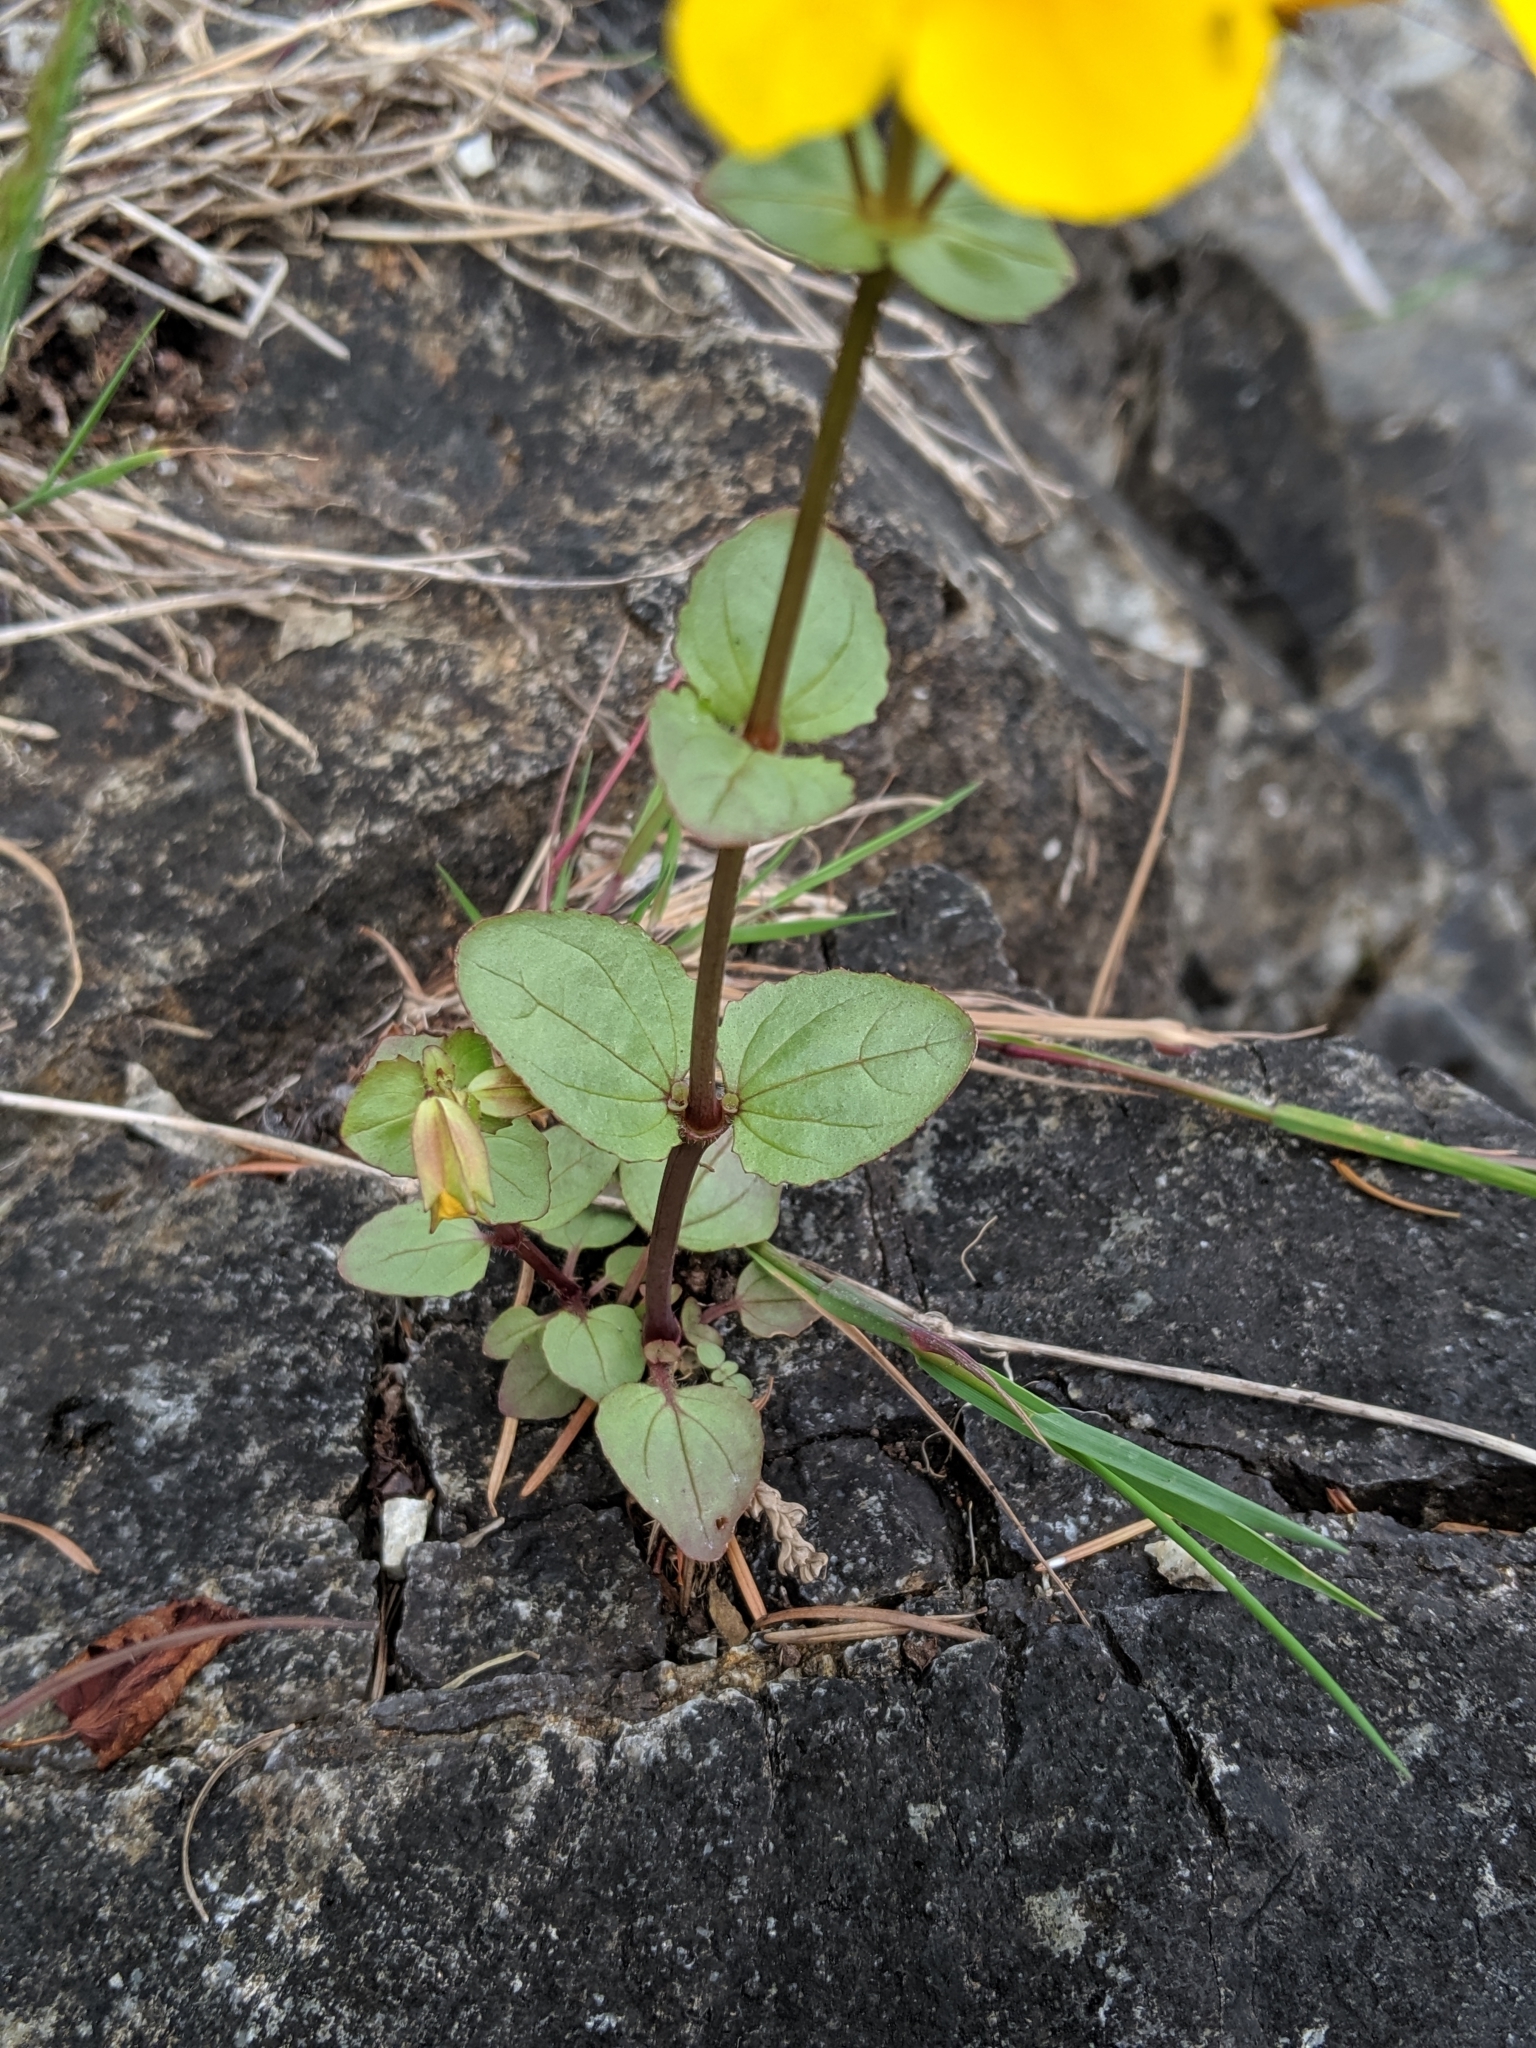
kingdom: Plantae
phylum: Tracheophyta
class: Magnoliopsida
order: Lamiales
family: Phrymaceae
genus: Erythranthe
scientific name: Erythranthe guttata
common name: Monkeyflower
